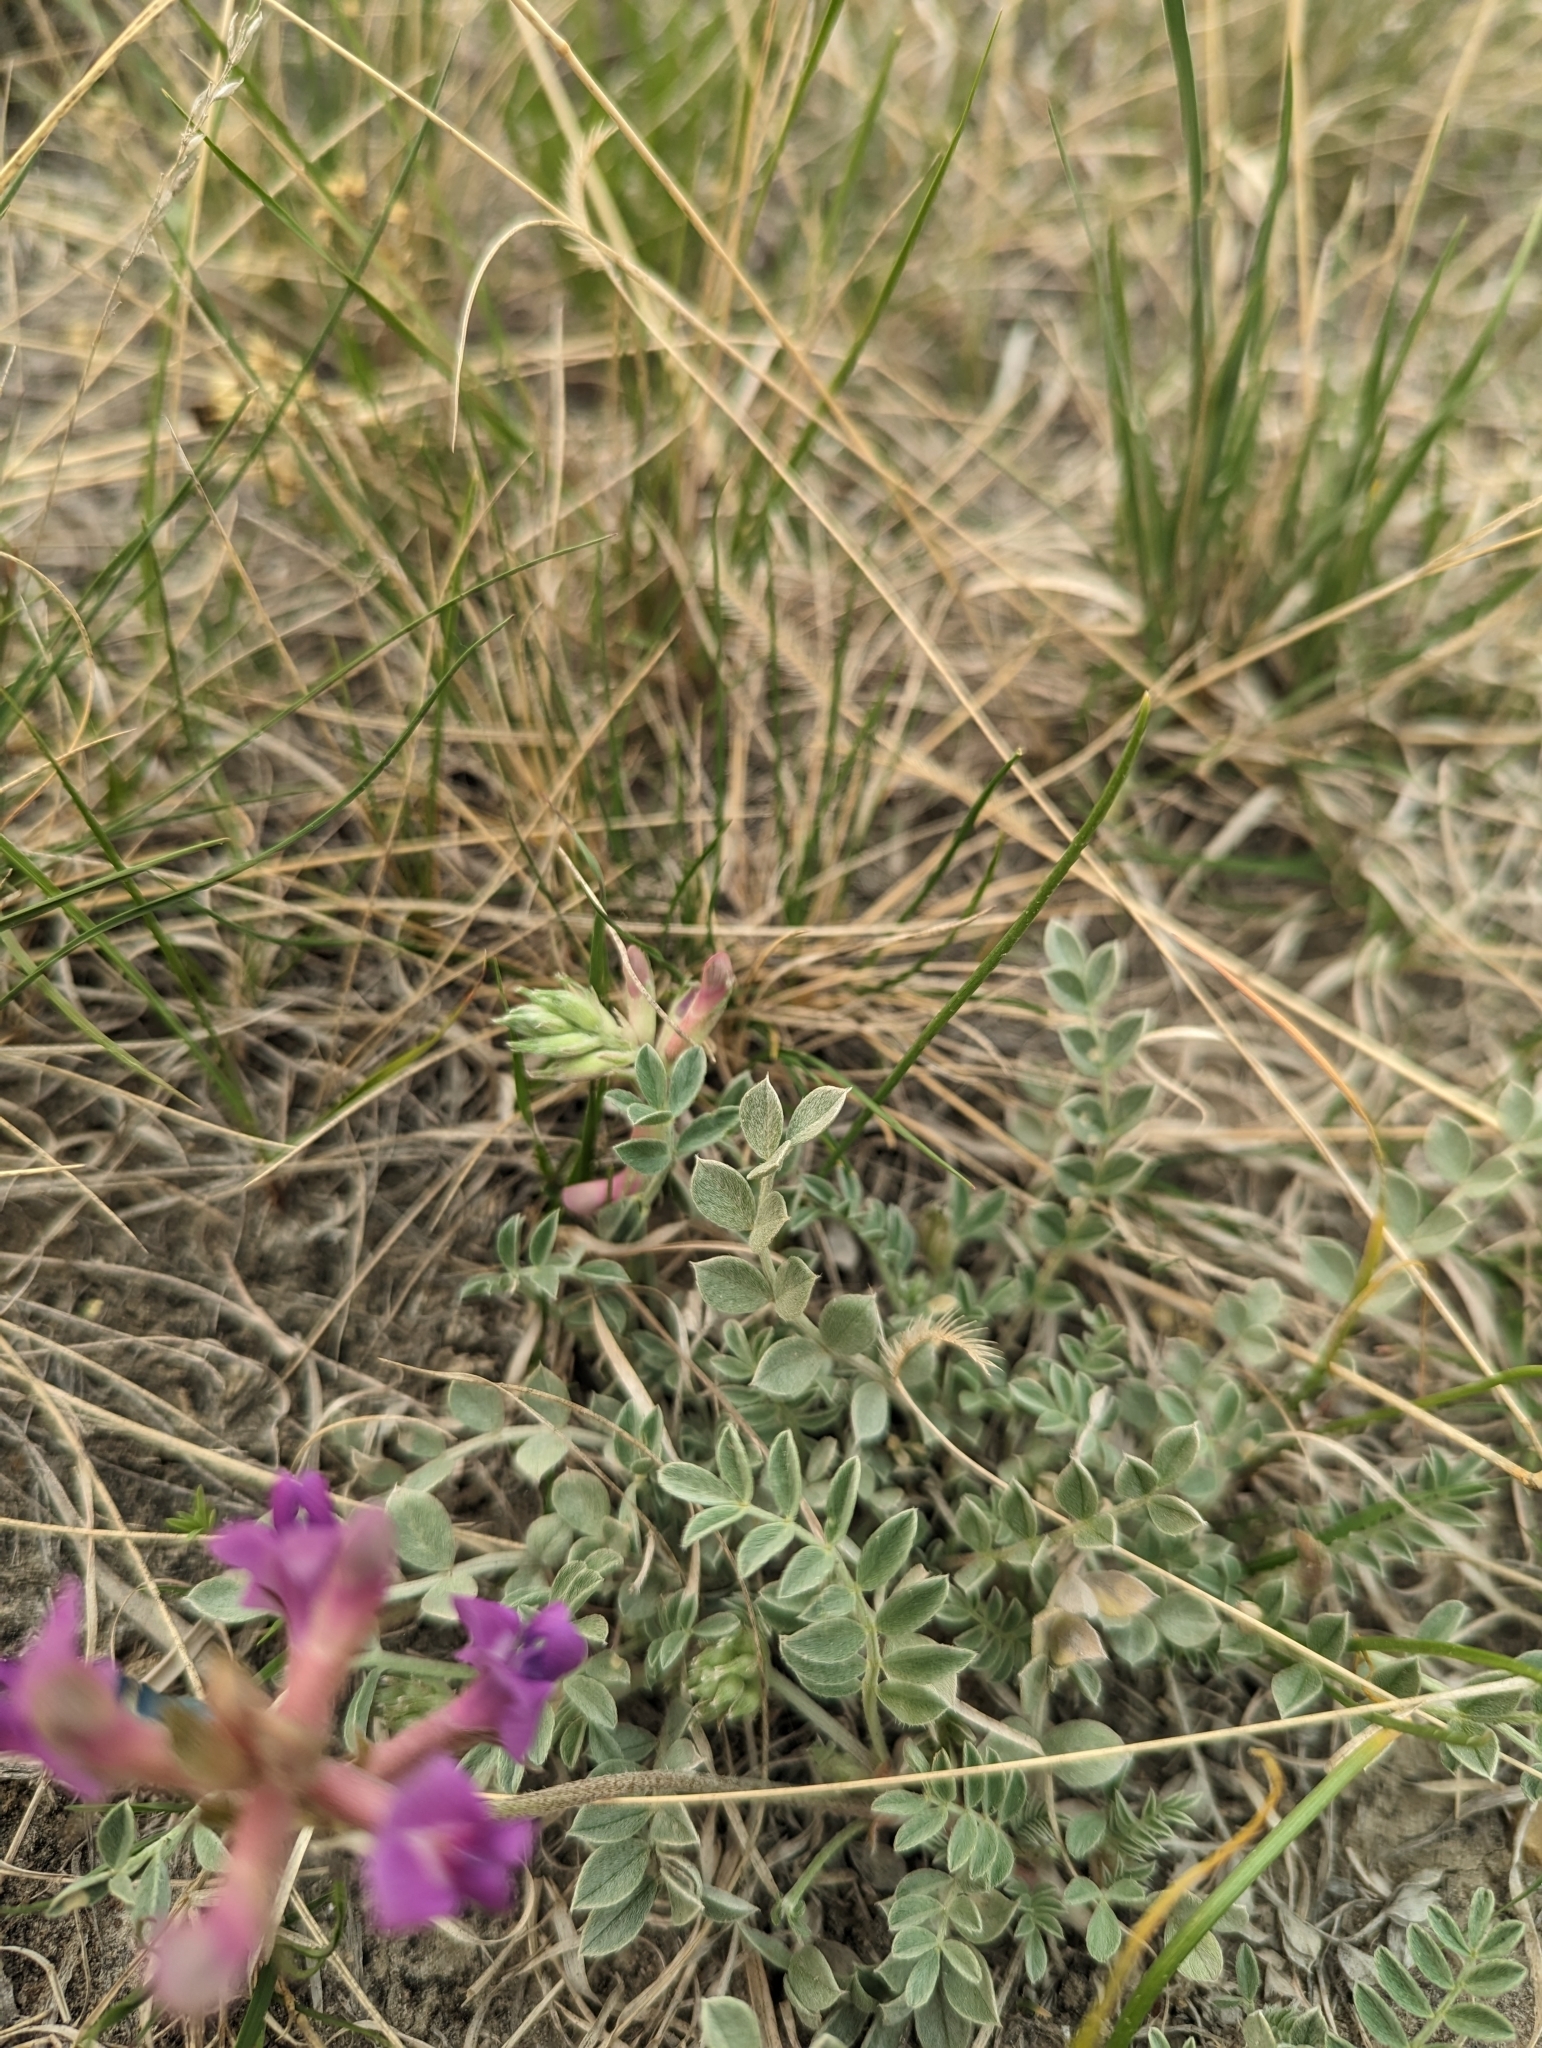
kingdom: Plantae
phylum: Tracheophyta
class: Magnoliopsida
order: Fabales
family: Fabaceae
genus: Astragalus
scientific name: Astragalus missouriensis
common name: Missouri milk-vetch
